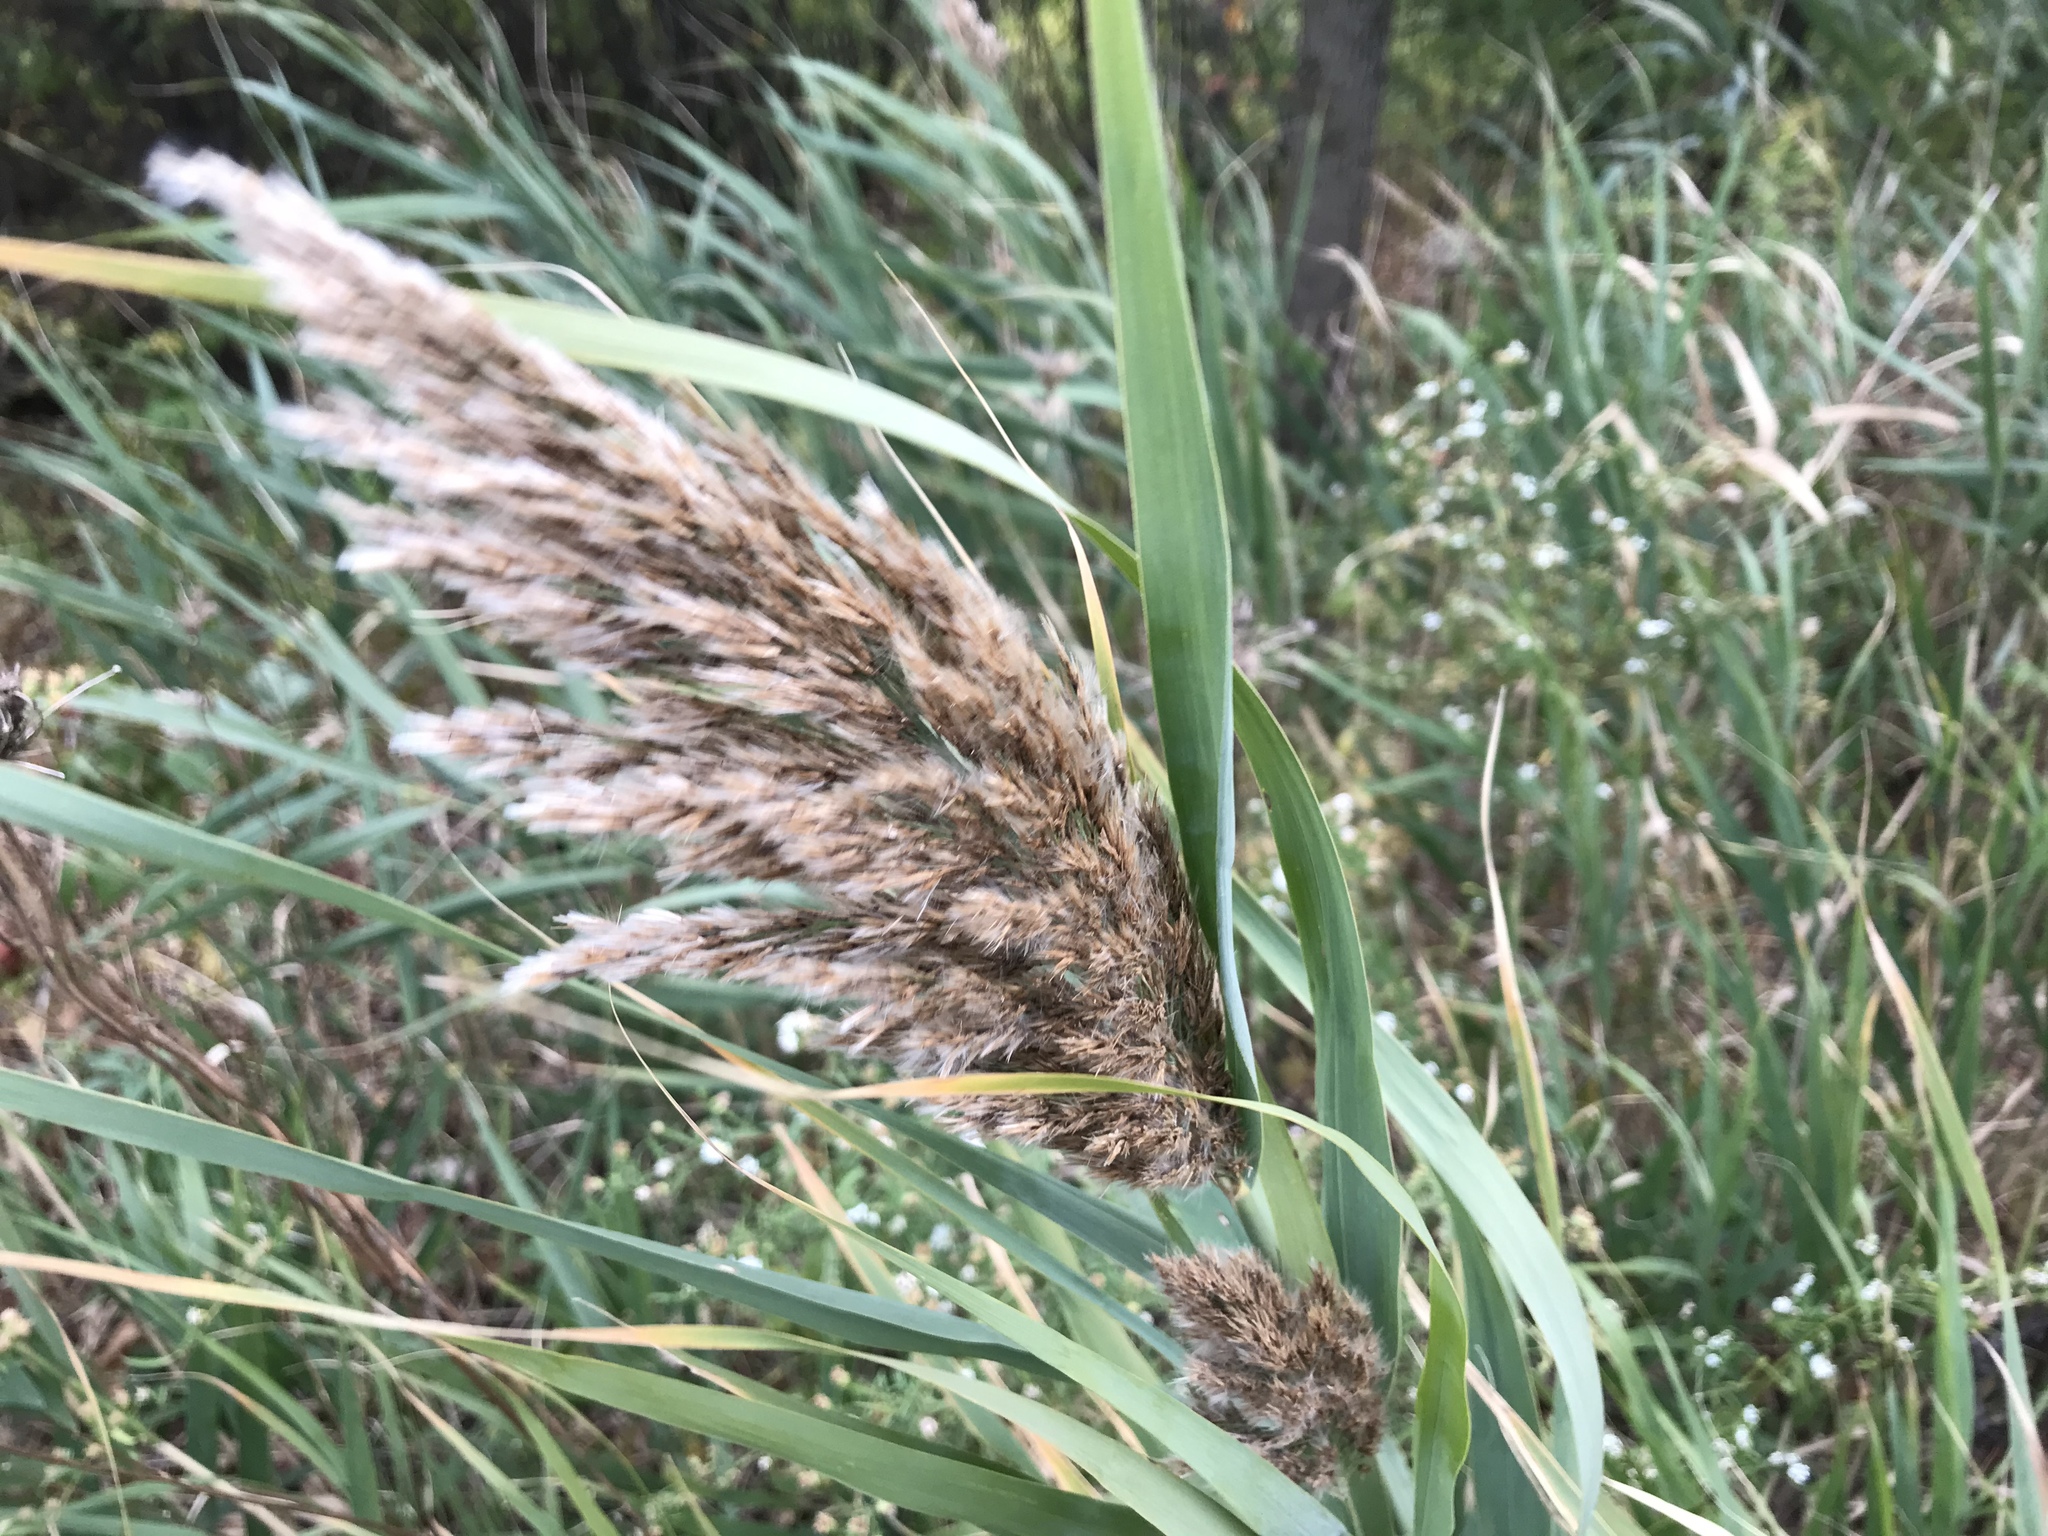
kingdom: Plantae
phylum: Tracheophyta
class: Liliopsida
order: Poales
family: Poaceae
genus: Phragmites
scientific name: Phragmites australis
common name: Common reed
